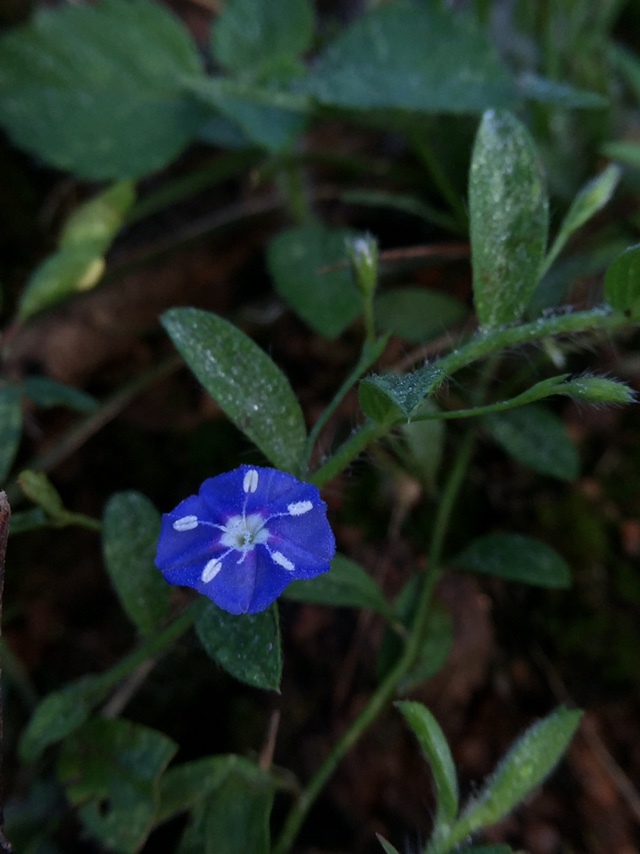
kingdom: Plantae
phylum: Tracheophyta
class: Magnoliopsida
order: Solanales
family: Convolvulaceae
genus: Evolvulus
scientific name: Evolvulus alsinoides
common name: Slender dwarf morning-glory
